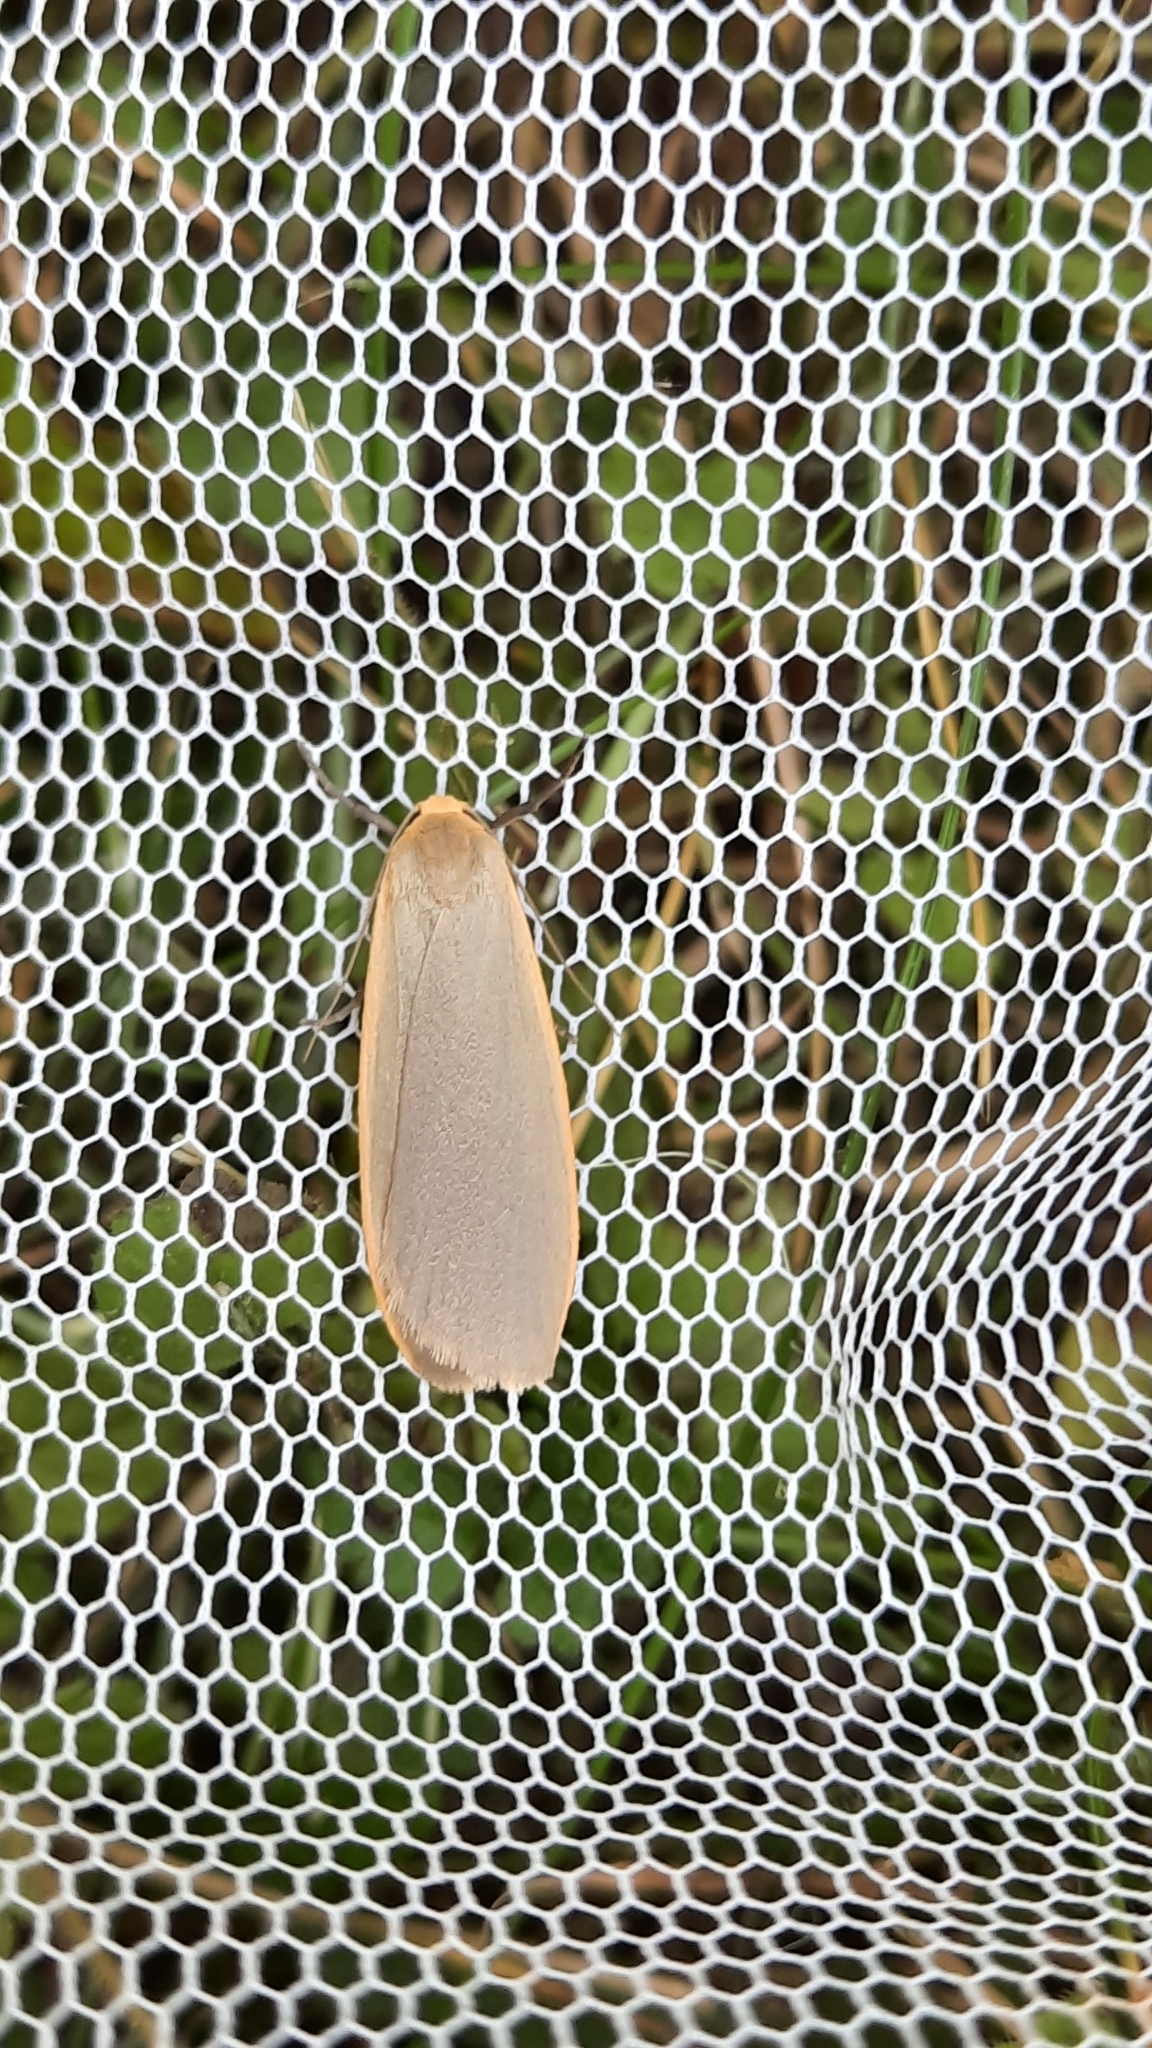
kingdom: Animalia
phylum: Arthropoda
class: Insecta
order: Lepidoptera
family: Erebidae
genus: Collita
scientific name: Collita griseola
